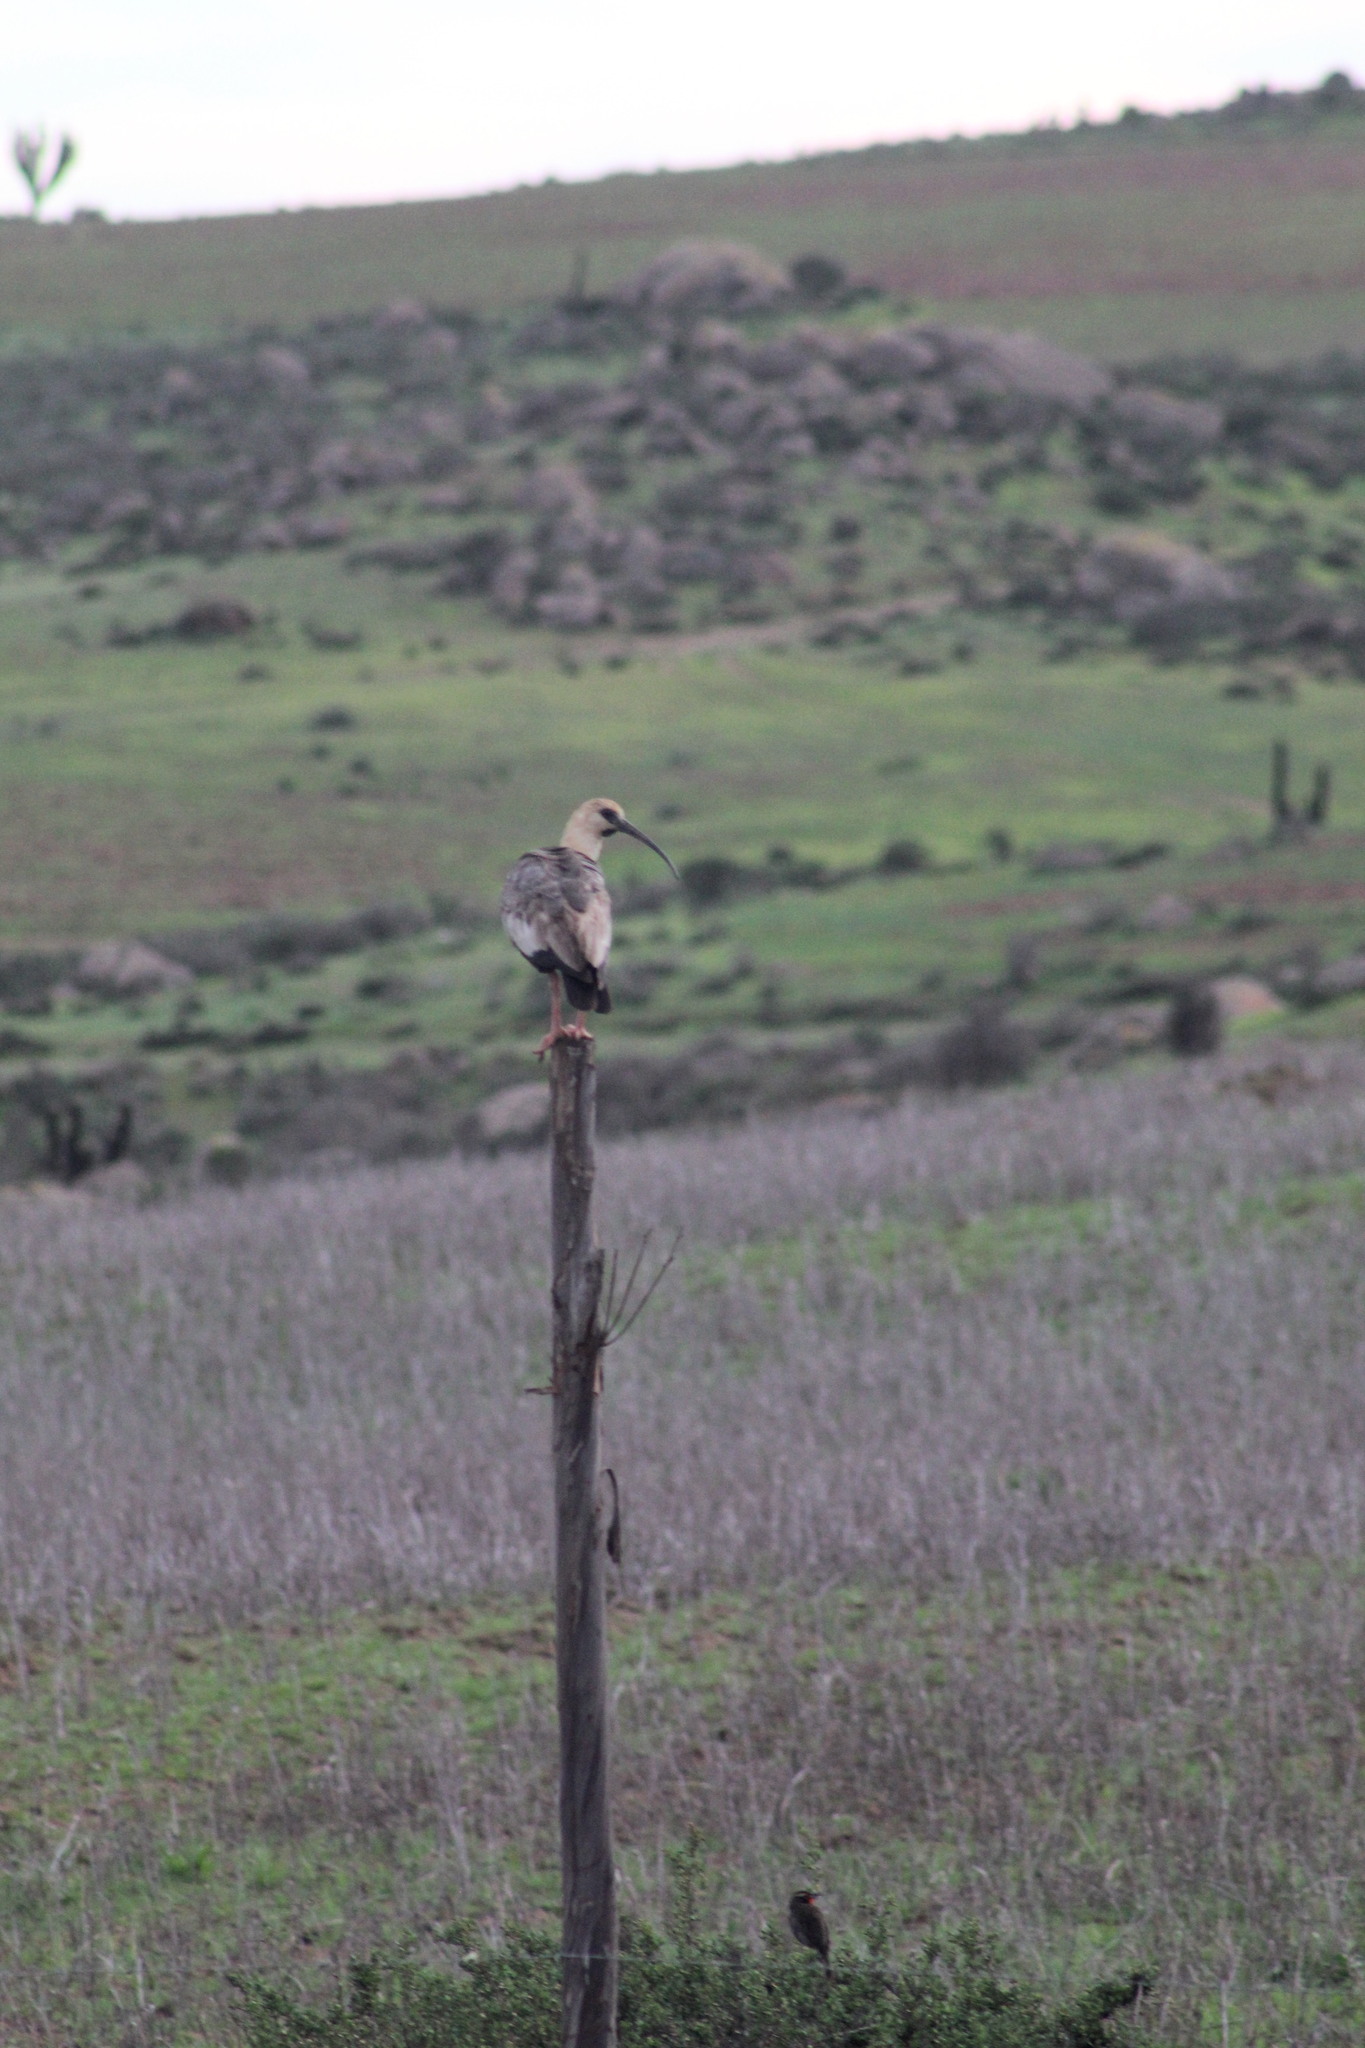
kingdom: Animalia
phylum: Chordata
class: Aves
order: Pelecaniformes
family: Threskiornithidae
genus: Theristicus
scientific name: Theristicus melanopis
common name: Black-faced ibis
